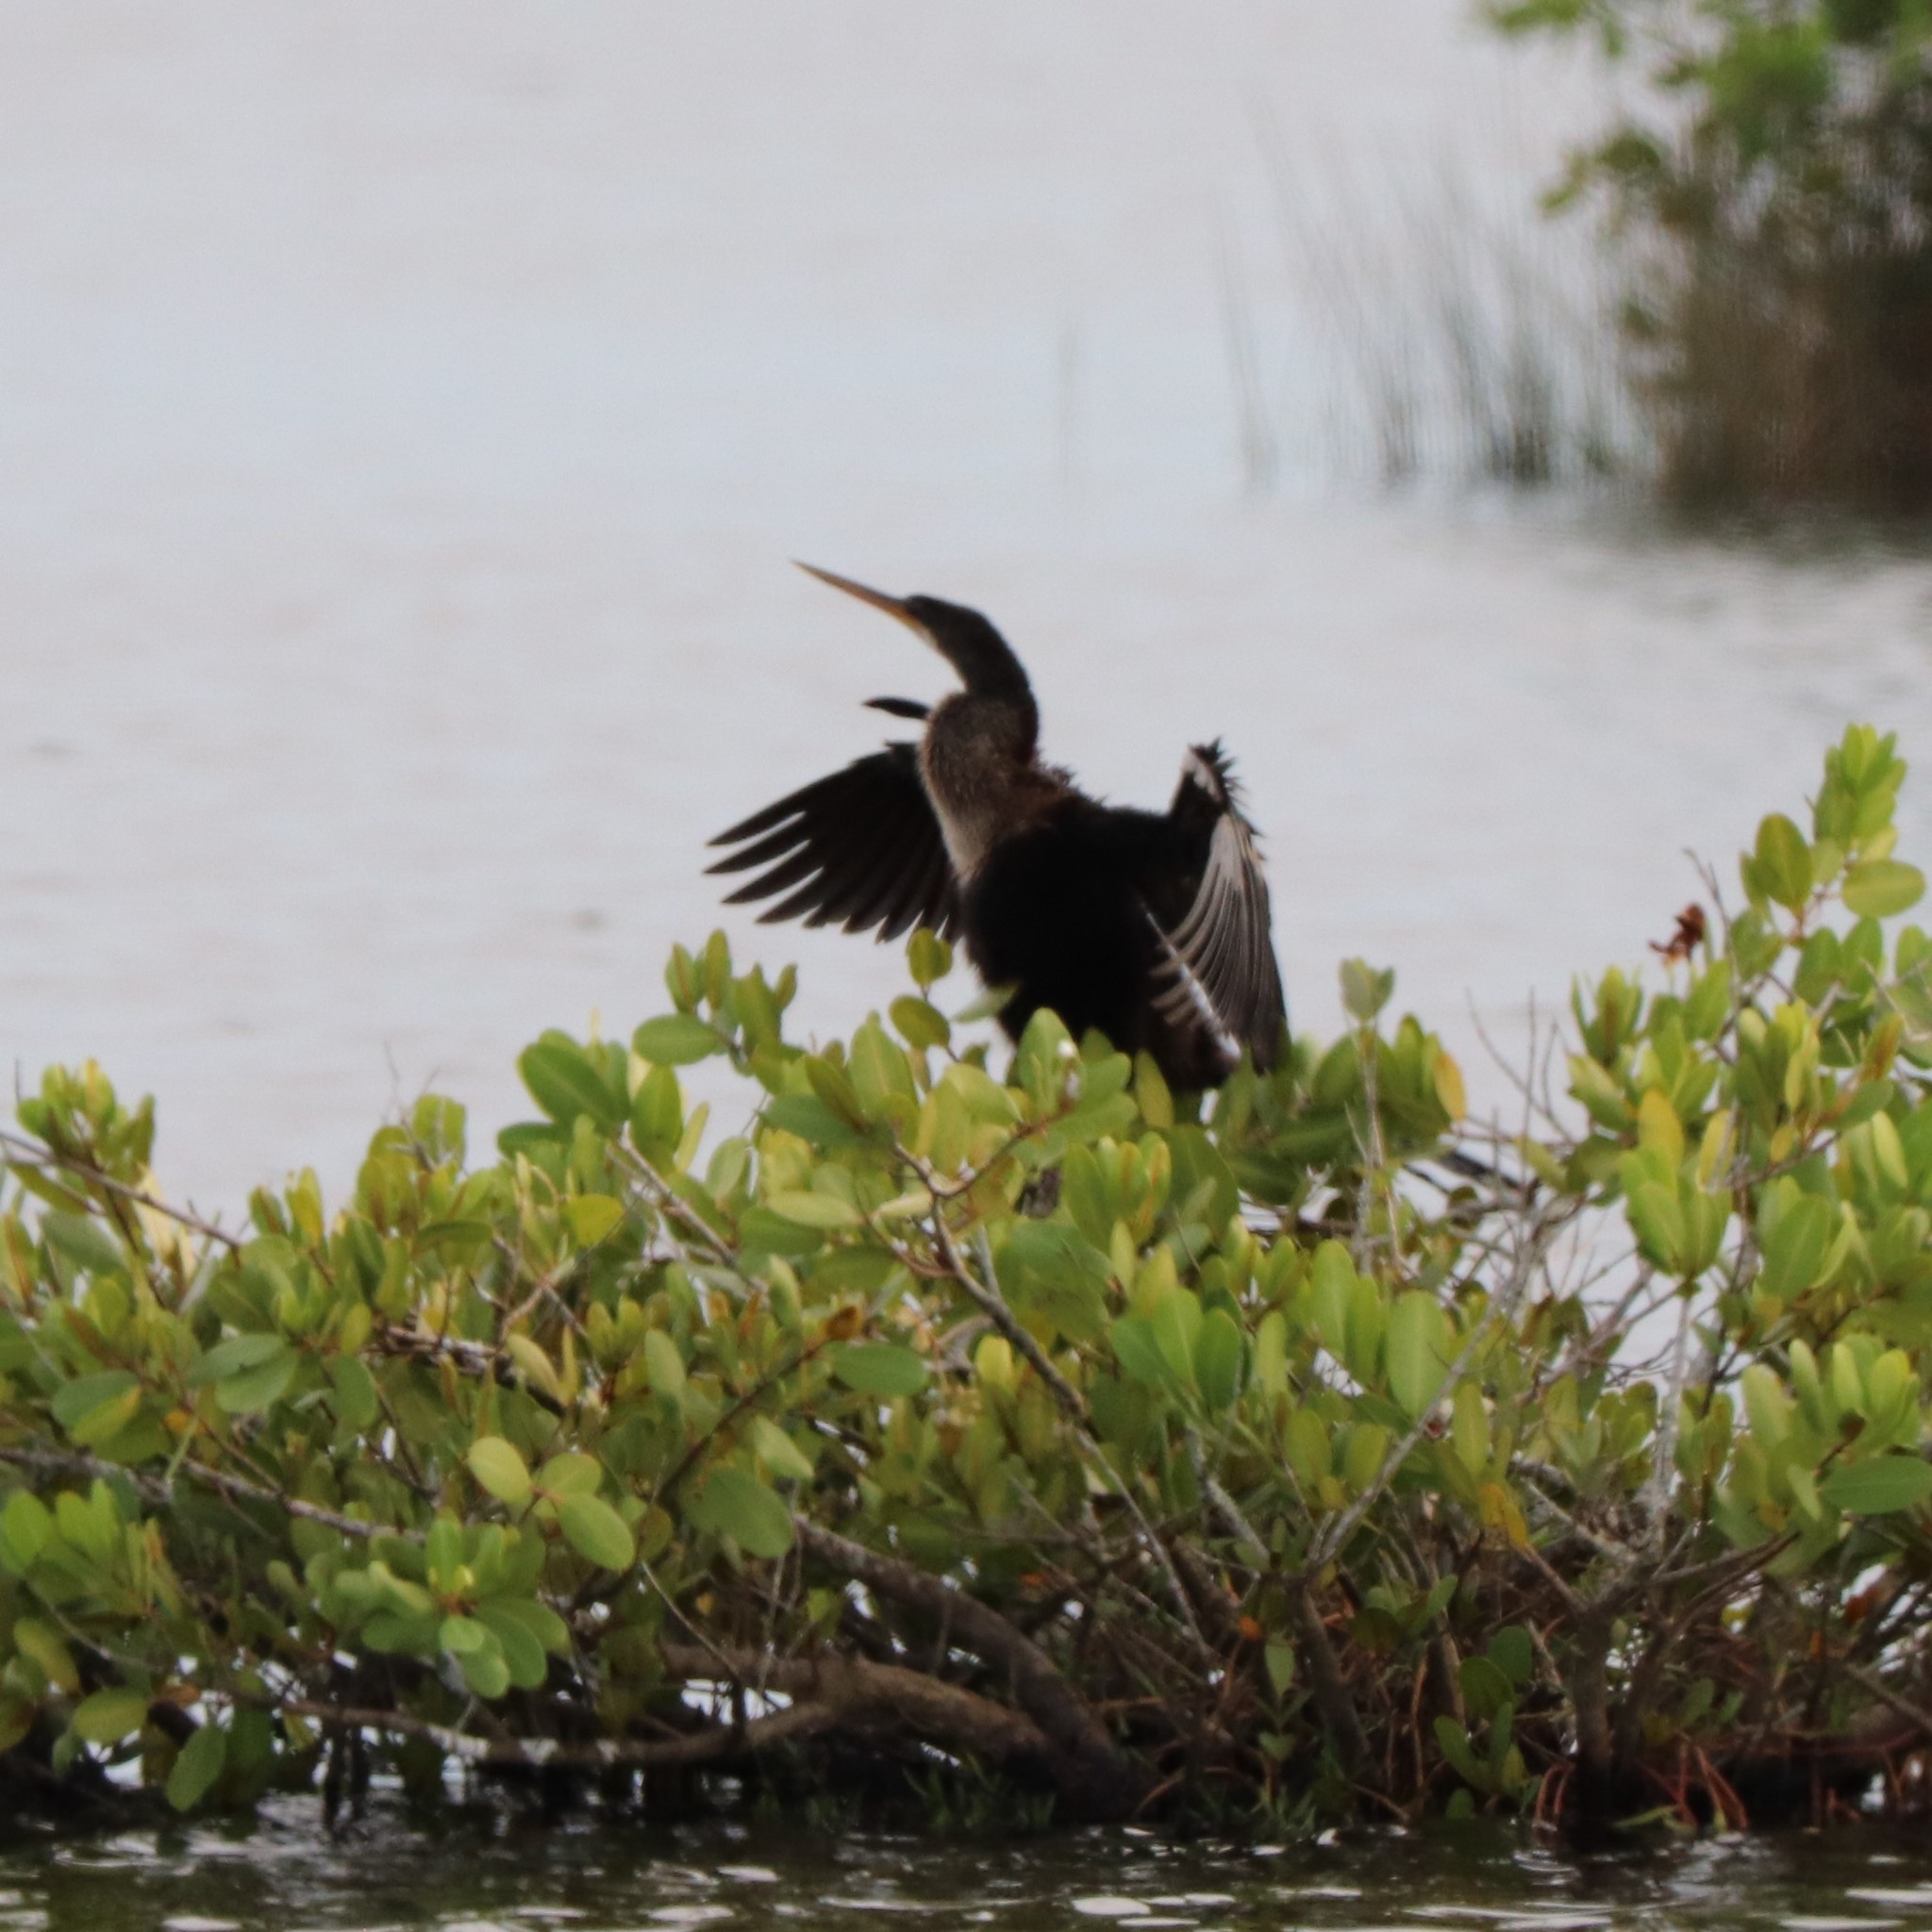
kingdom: Animalia
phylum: Chordata
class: Aves
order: Suliformes
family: Anhingidae
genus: Anhinga
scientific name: Anhinga anhinga
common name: Anhinga
